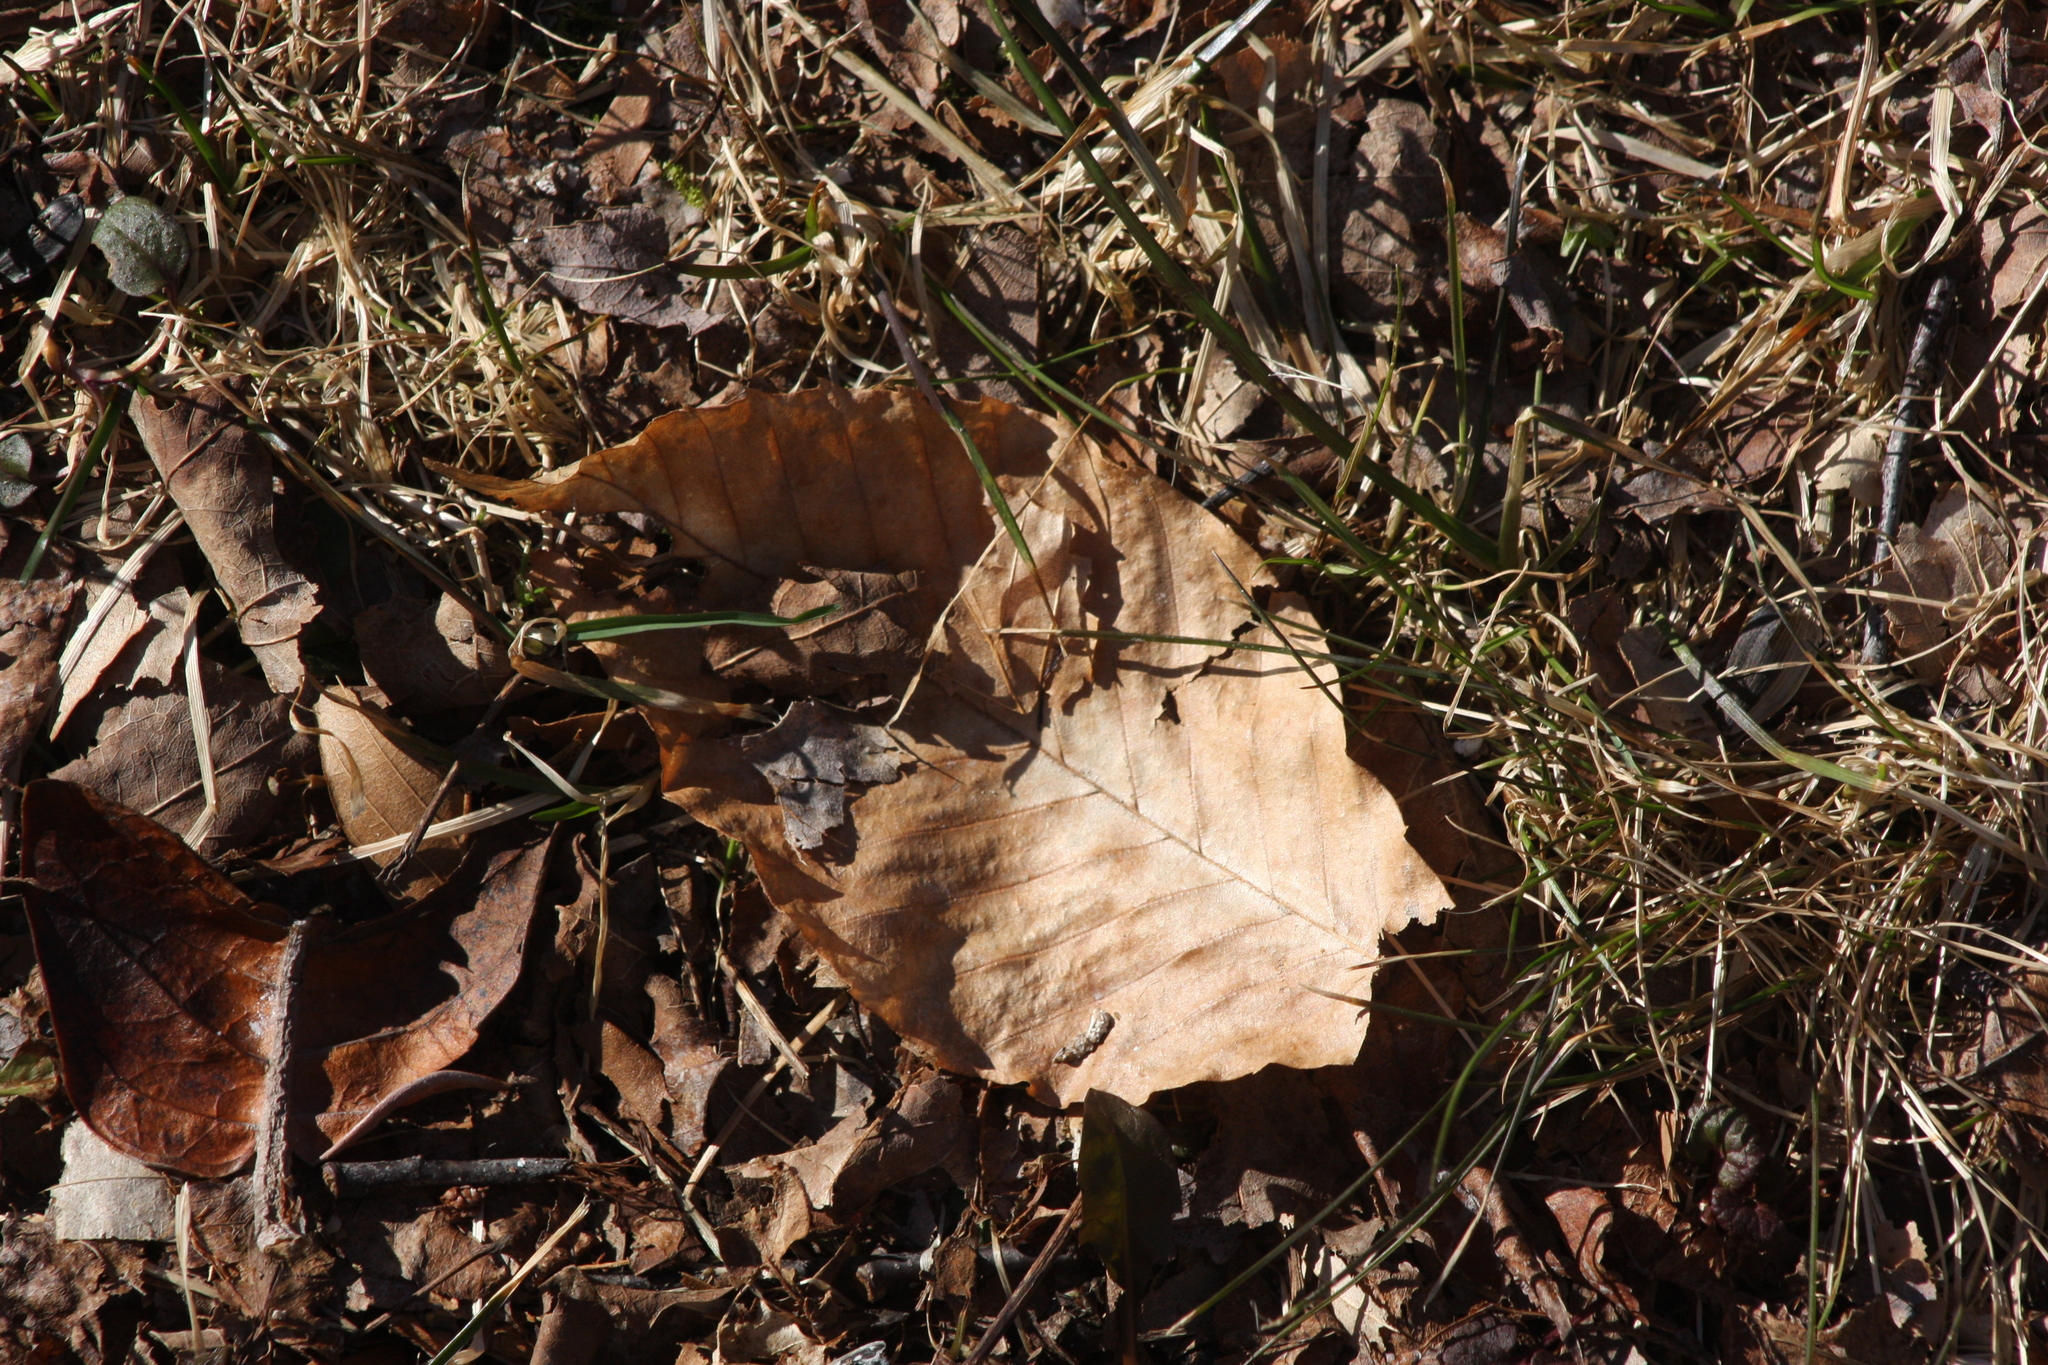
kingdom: Plantae
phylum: Tracheophyta
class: Magnoliopsida
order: Fagales
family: Fagaceae
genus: Fagus
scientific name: Fagus grandifolia
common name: American beech
